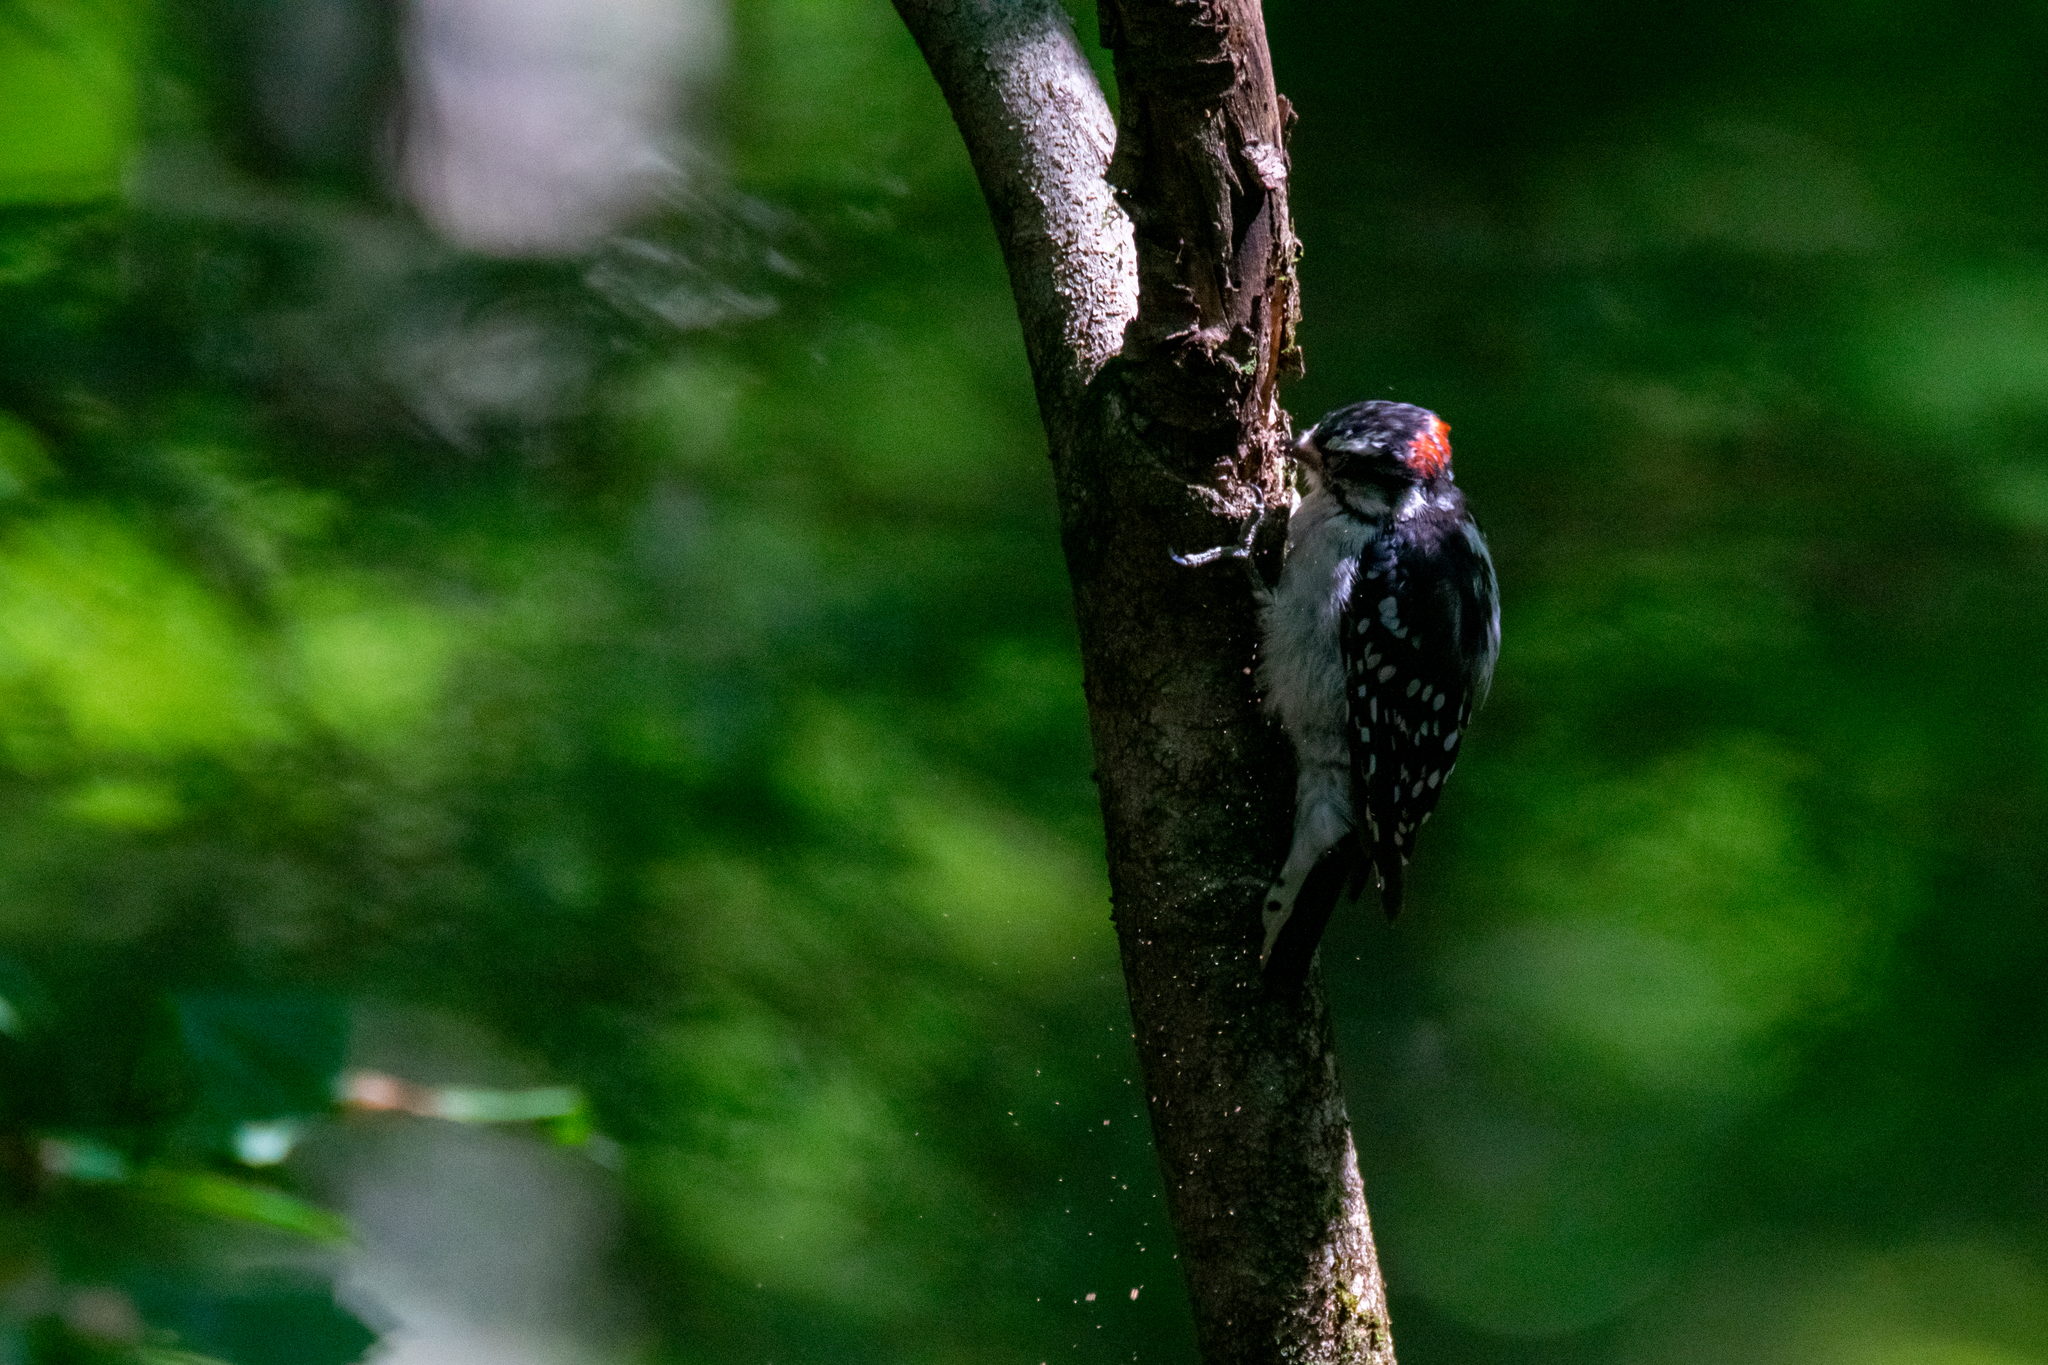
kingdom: Animalia
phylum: Chordata
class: Aves
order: Piciformes
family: Picidae
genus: Dryobates
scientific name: Dryobates pubescens
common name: Downy woodpecker
